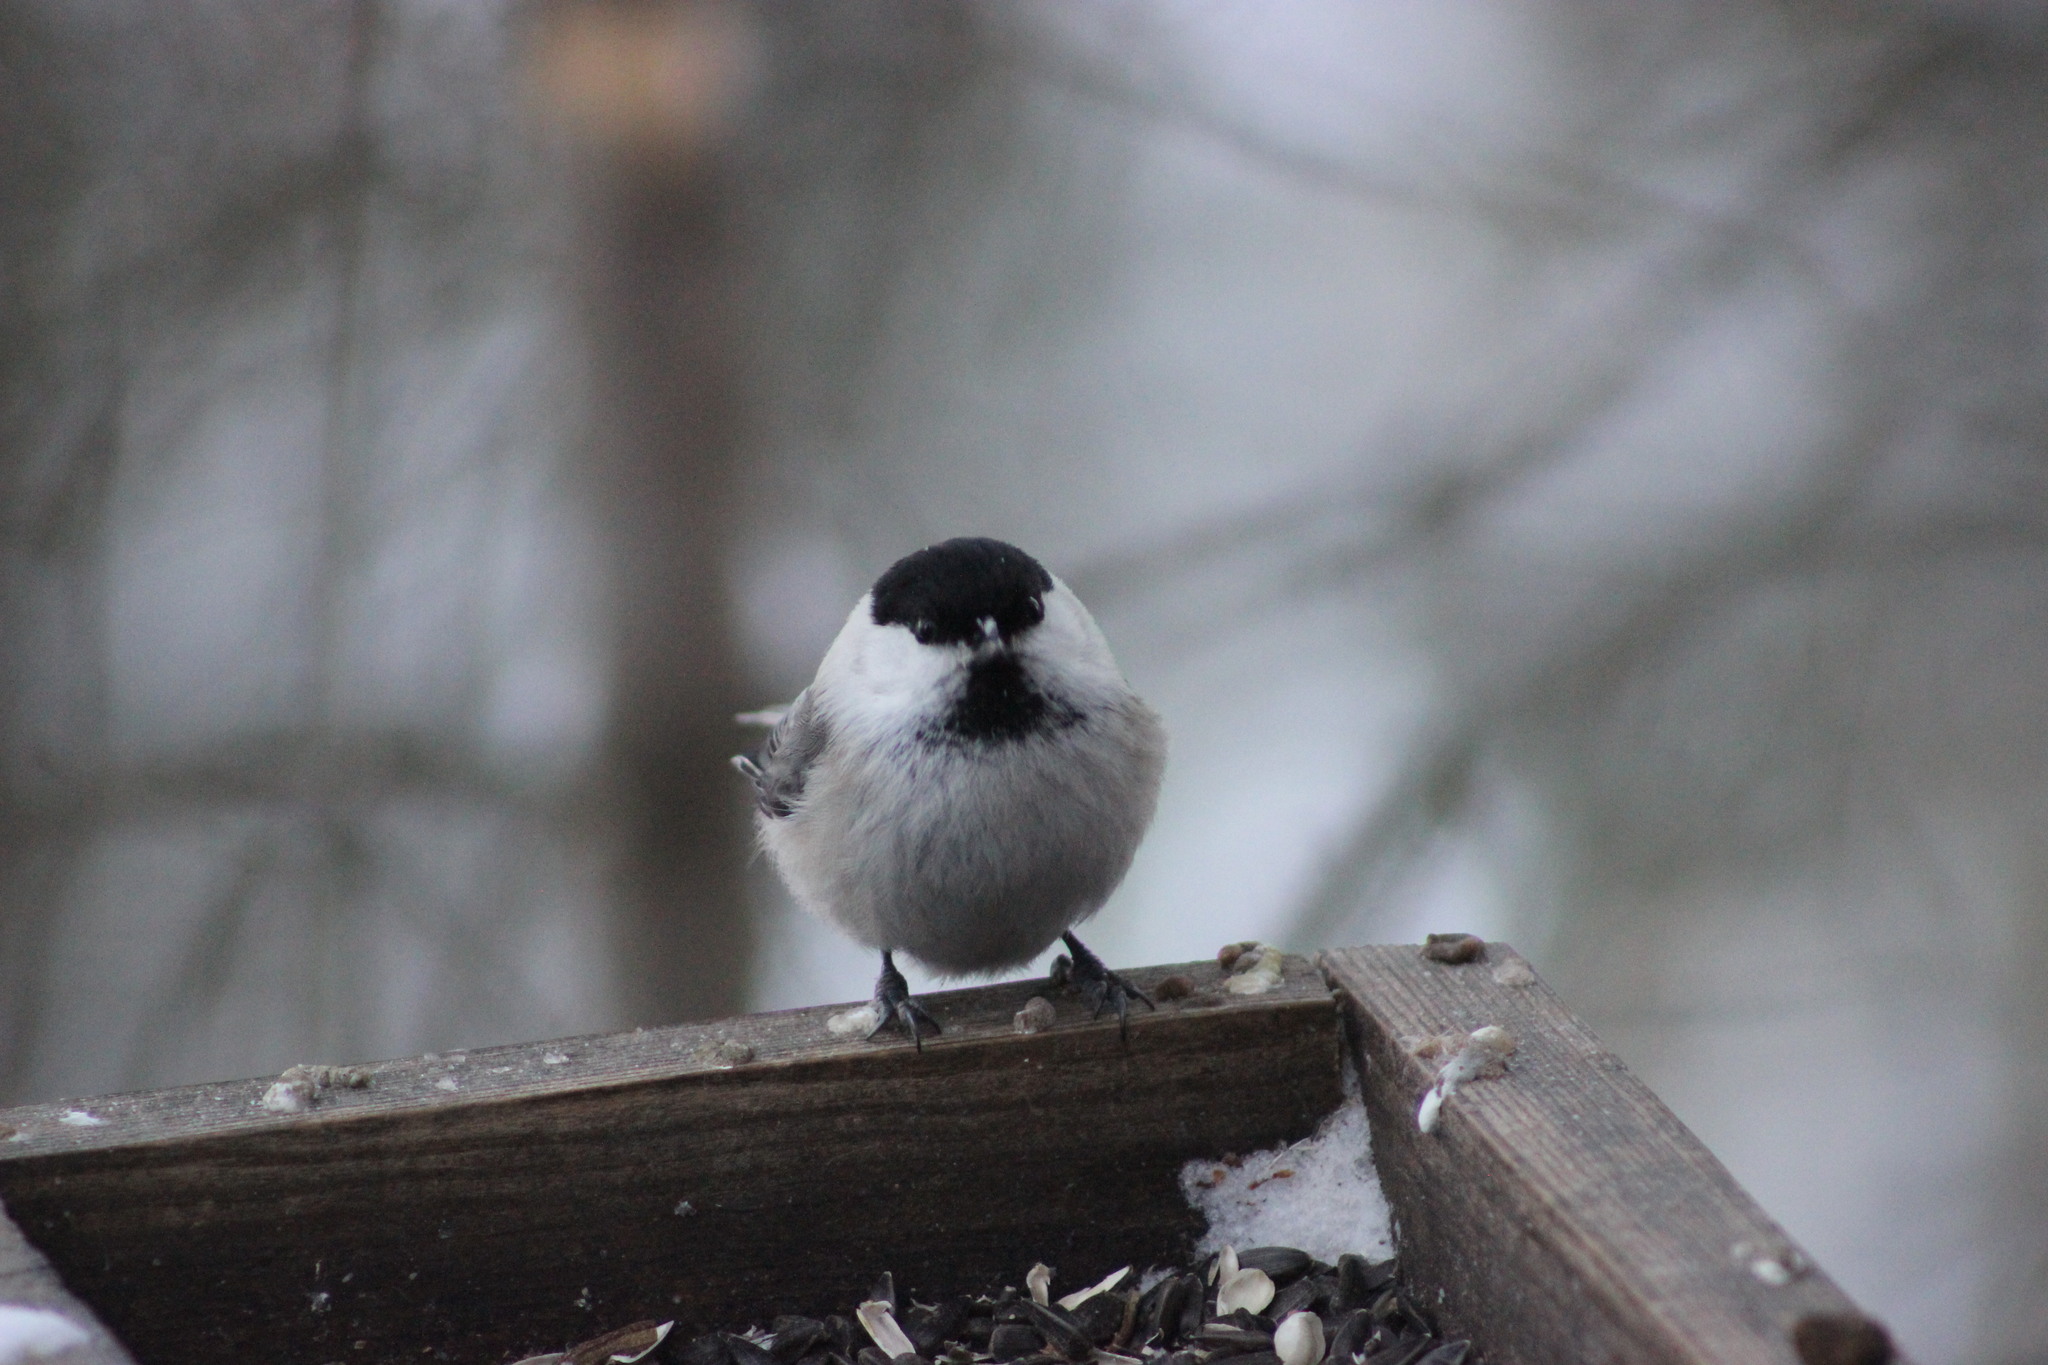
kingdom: Animalia
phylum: Chordata
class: Aves
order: Passeriformes
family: Paridae
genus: Poecile
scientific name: Poecile montanus
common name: Willow tit
